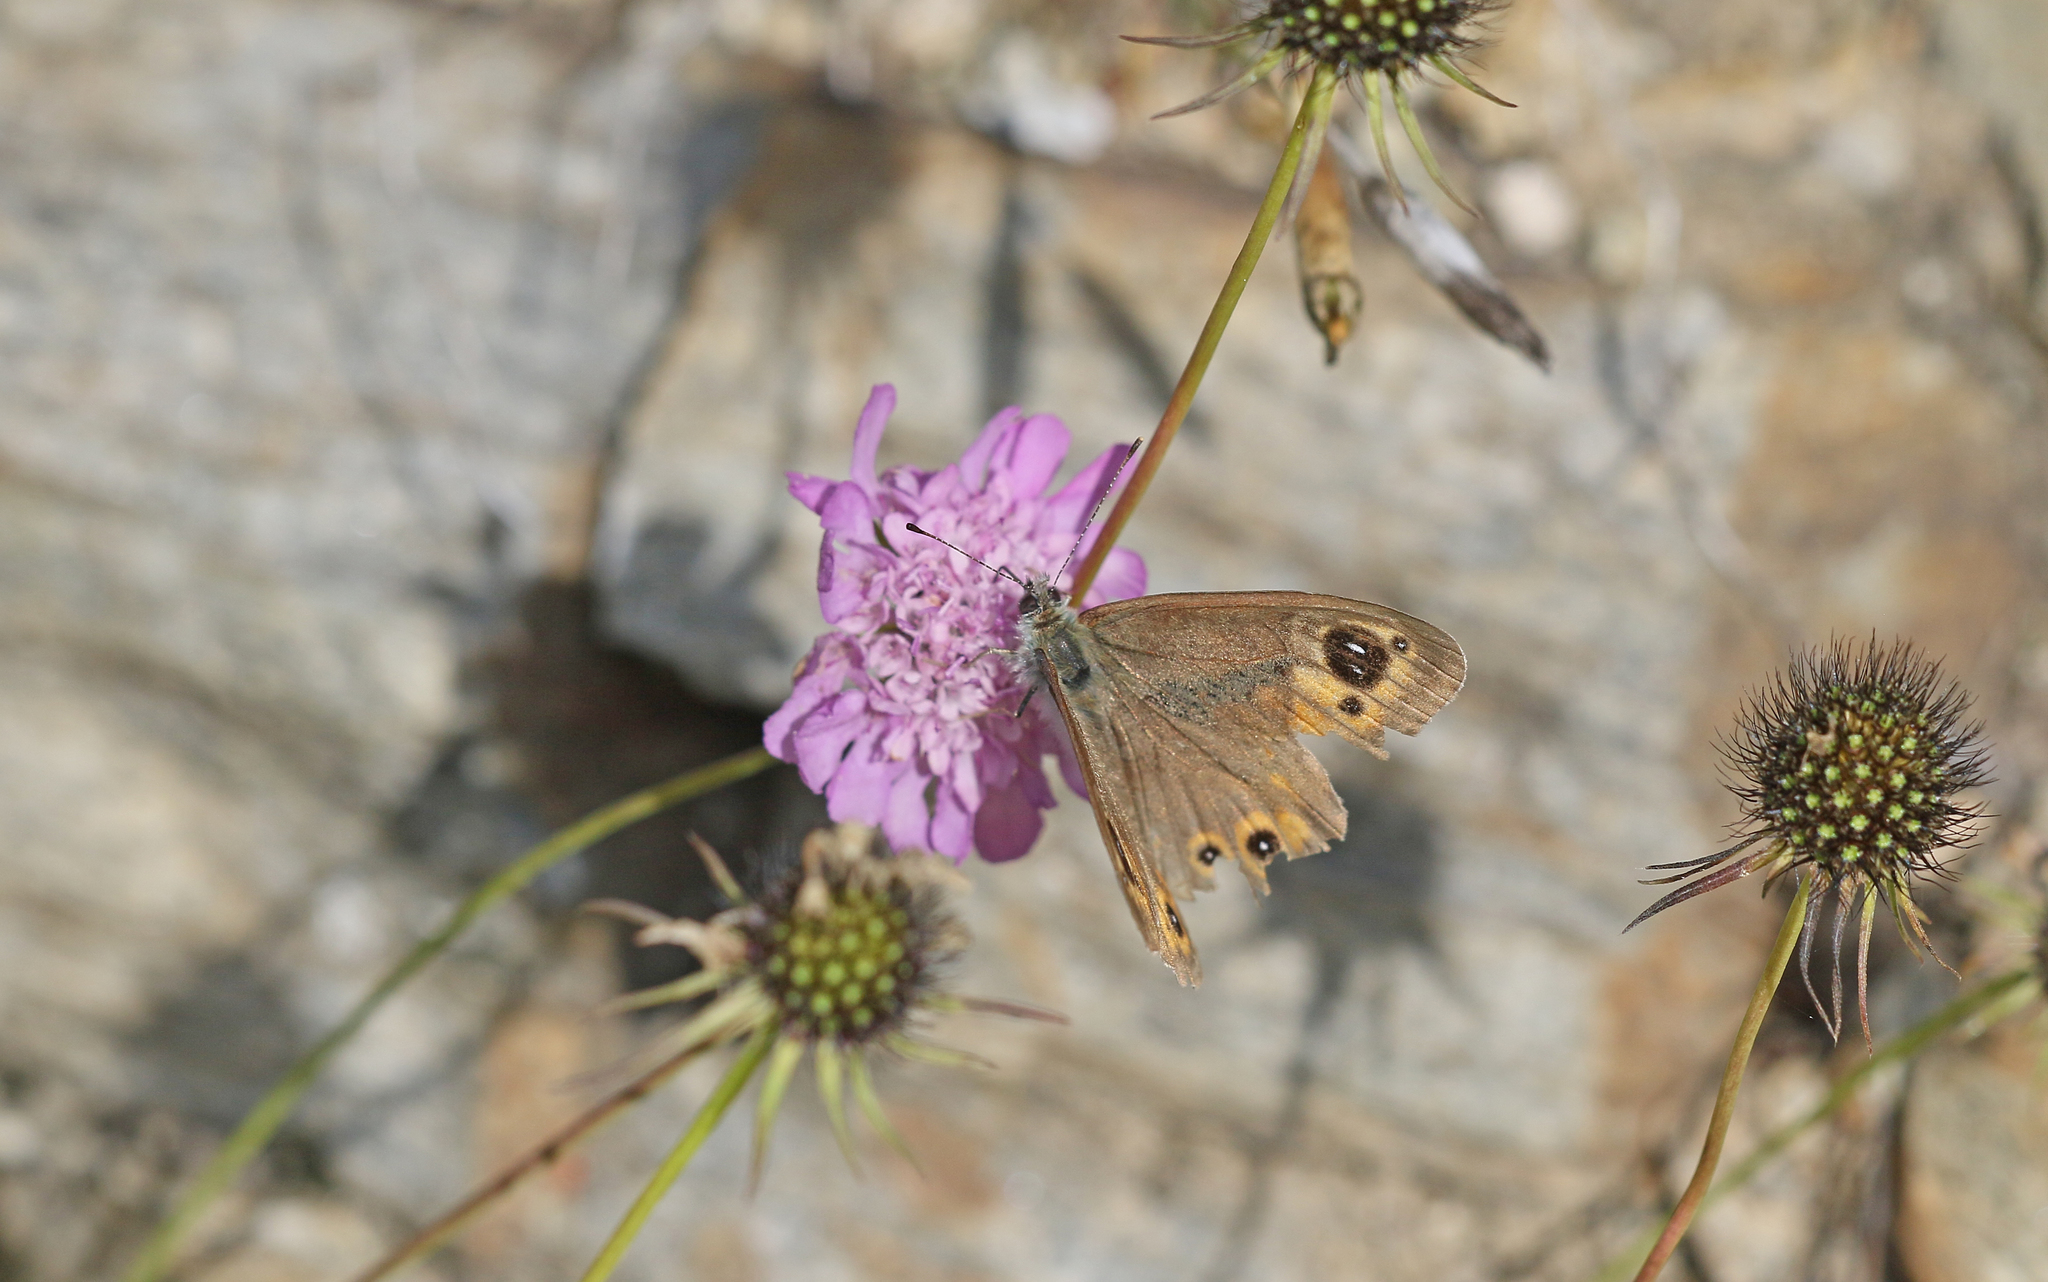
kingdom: Animalia
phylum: Arthropoda
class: Insecta
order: Lepidoptera
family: Nymphalidae
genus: Pararge
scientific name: Pararge Lasiommata maera
